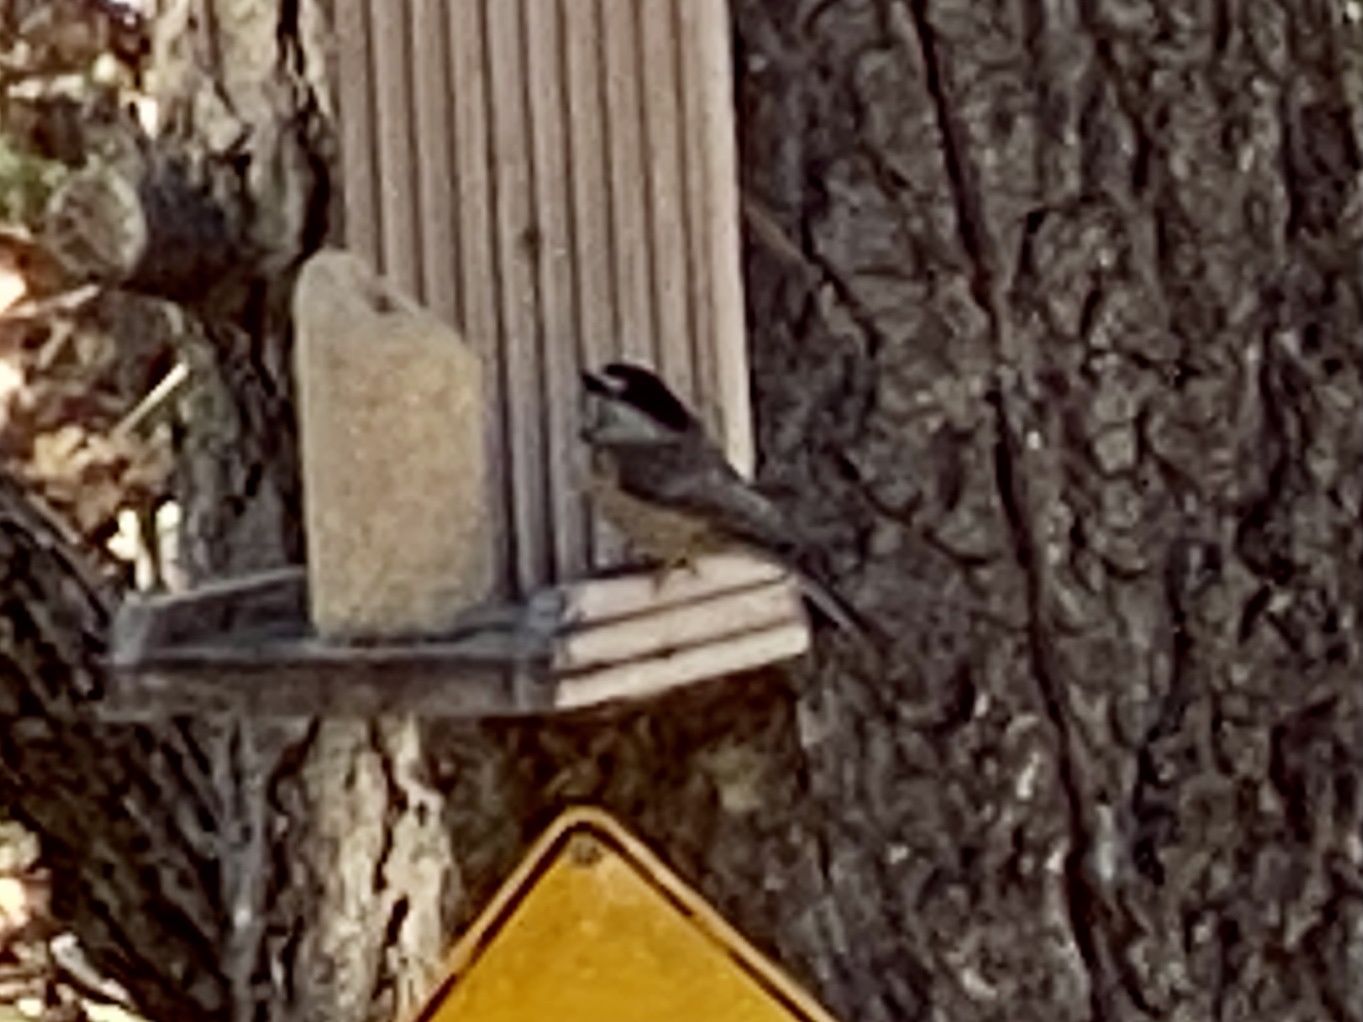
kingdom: Animalia
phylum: Chordata
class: Aves
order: Passeriformes
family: Paridae
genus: Poecile
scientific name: Poecile gambeli
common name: Mountain chickadee
